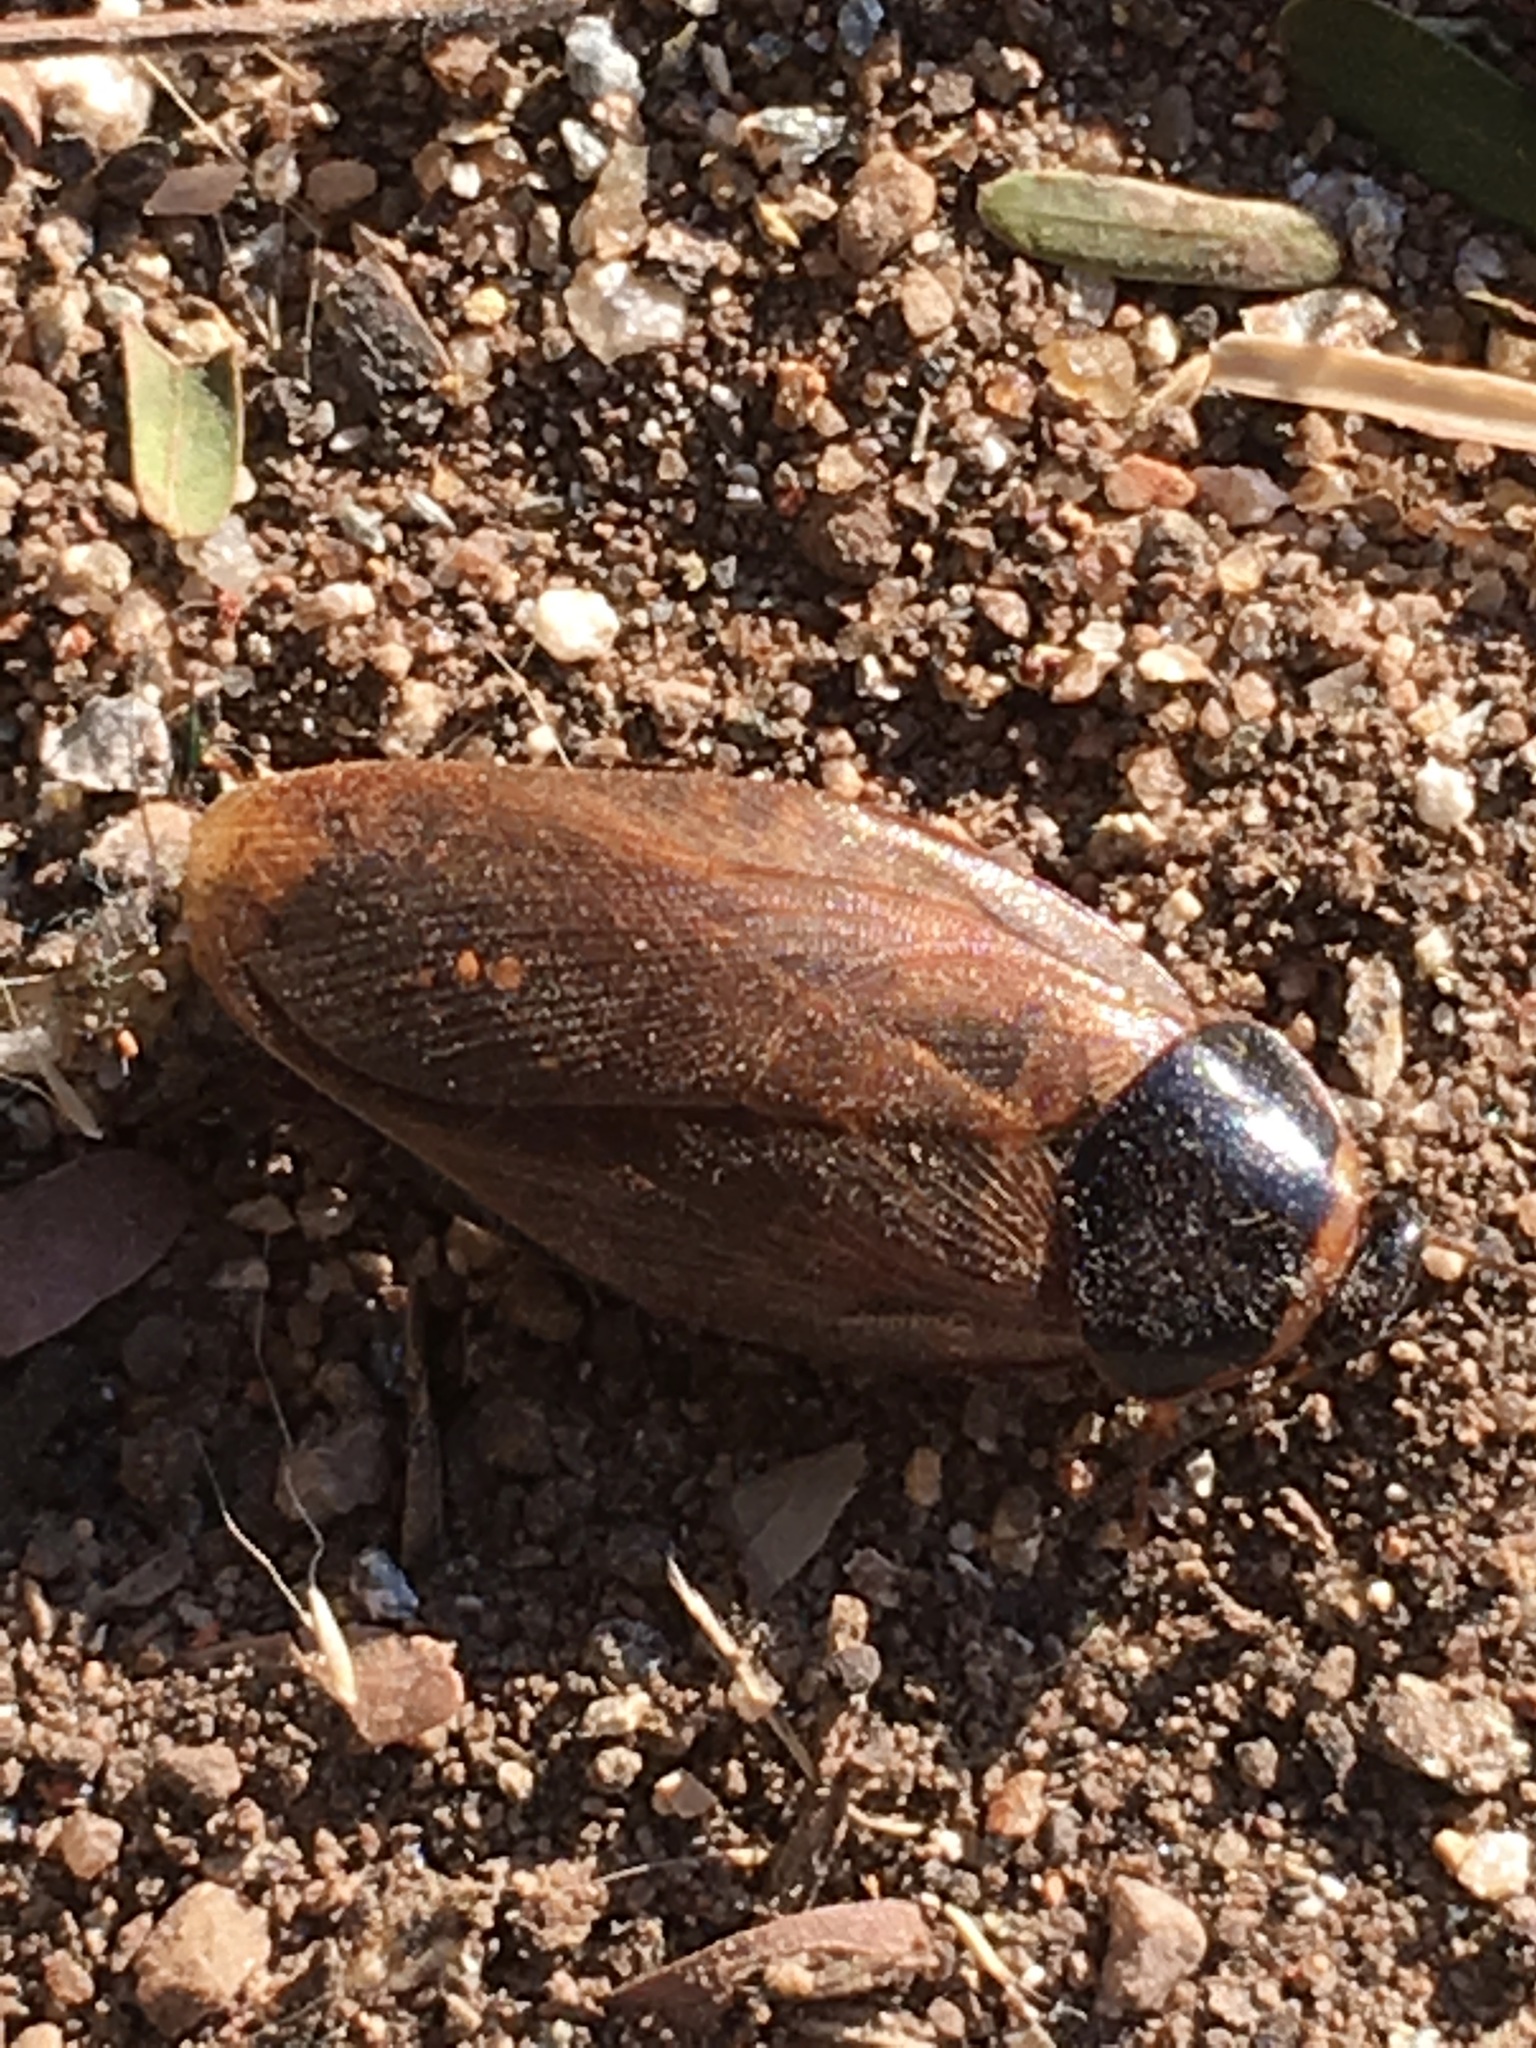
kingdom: Animalia
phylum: Arthropoda
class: Insecta
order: Blattodea
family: Blaberidae
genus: Pycnoscelus
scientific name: Pycnoscelus surinamensis
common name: Surinam cockroach
